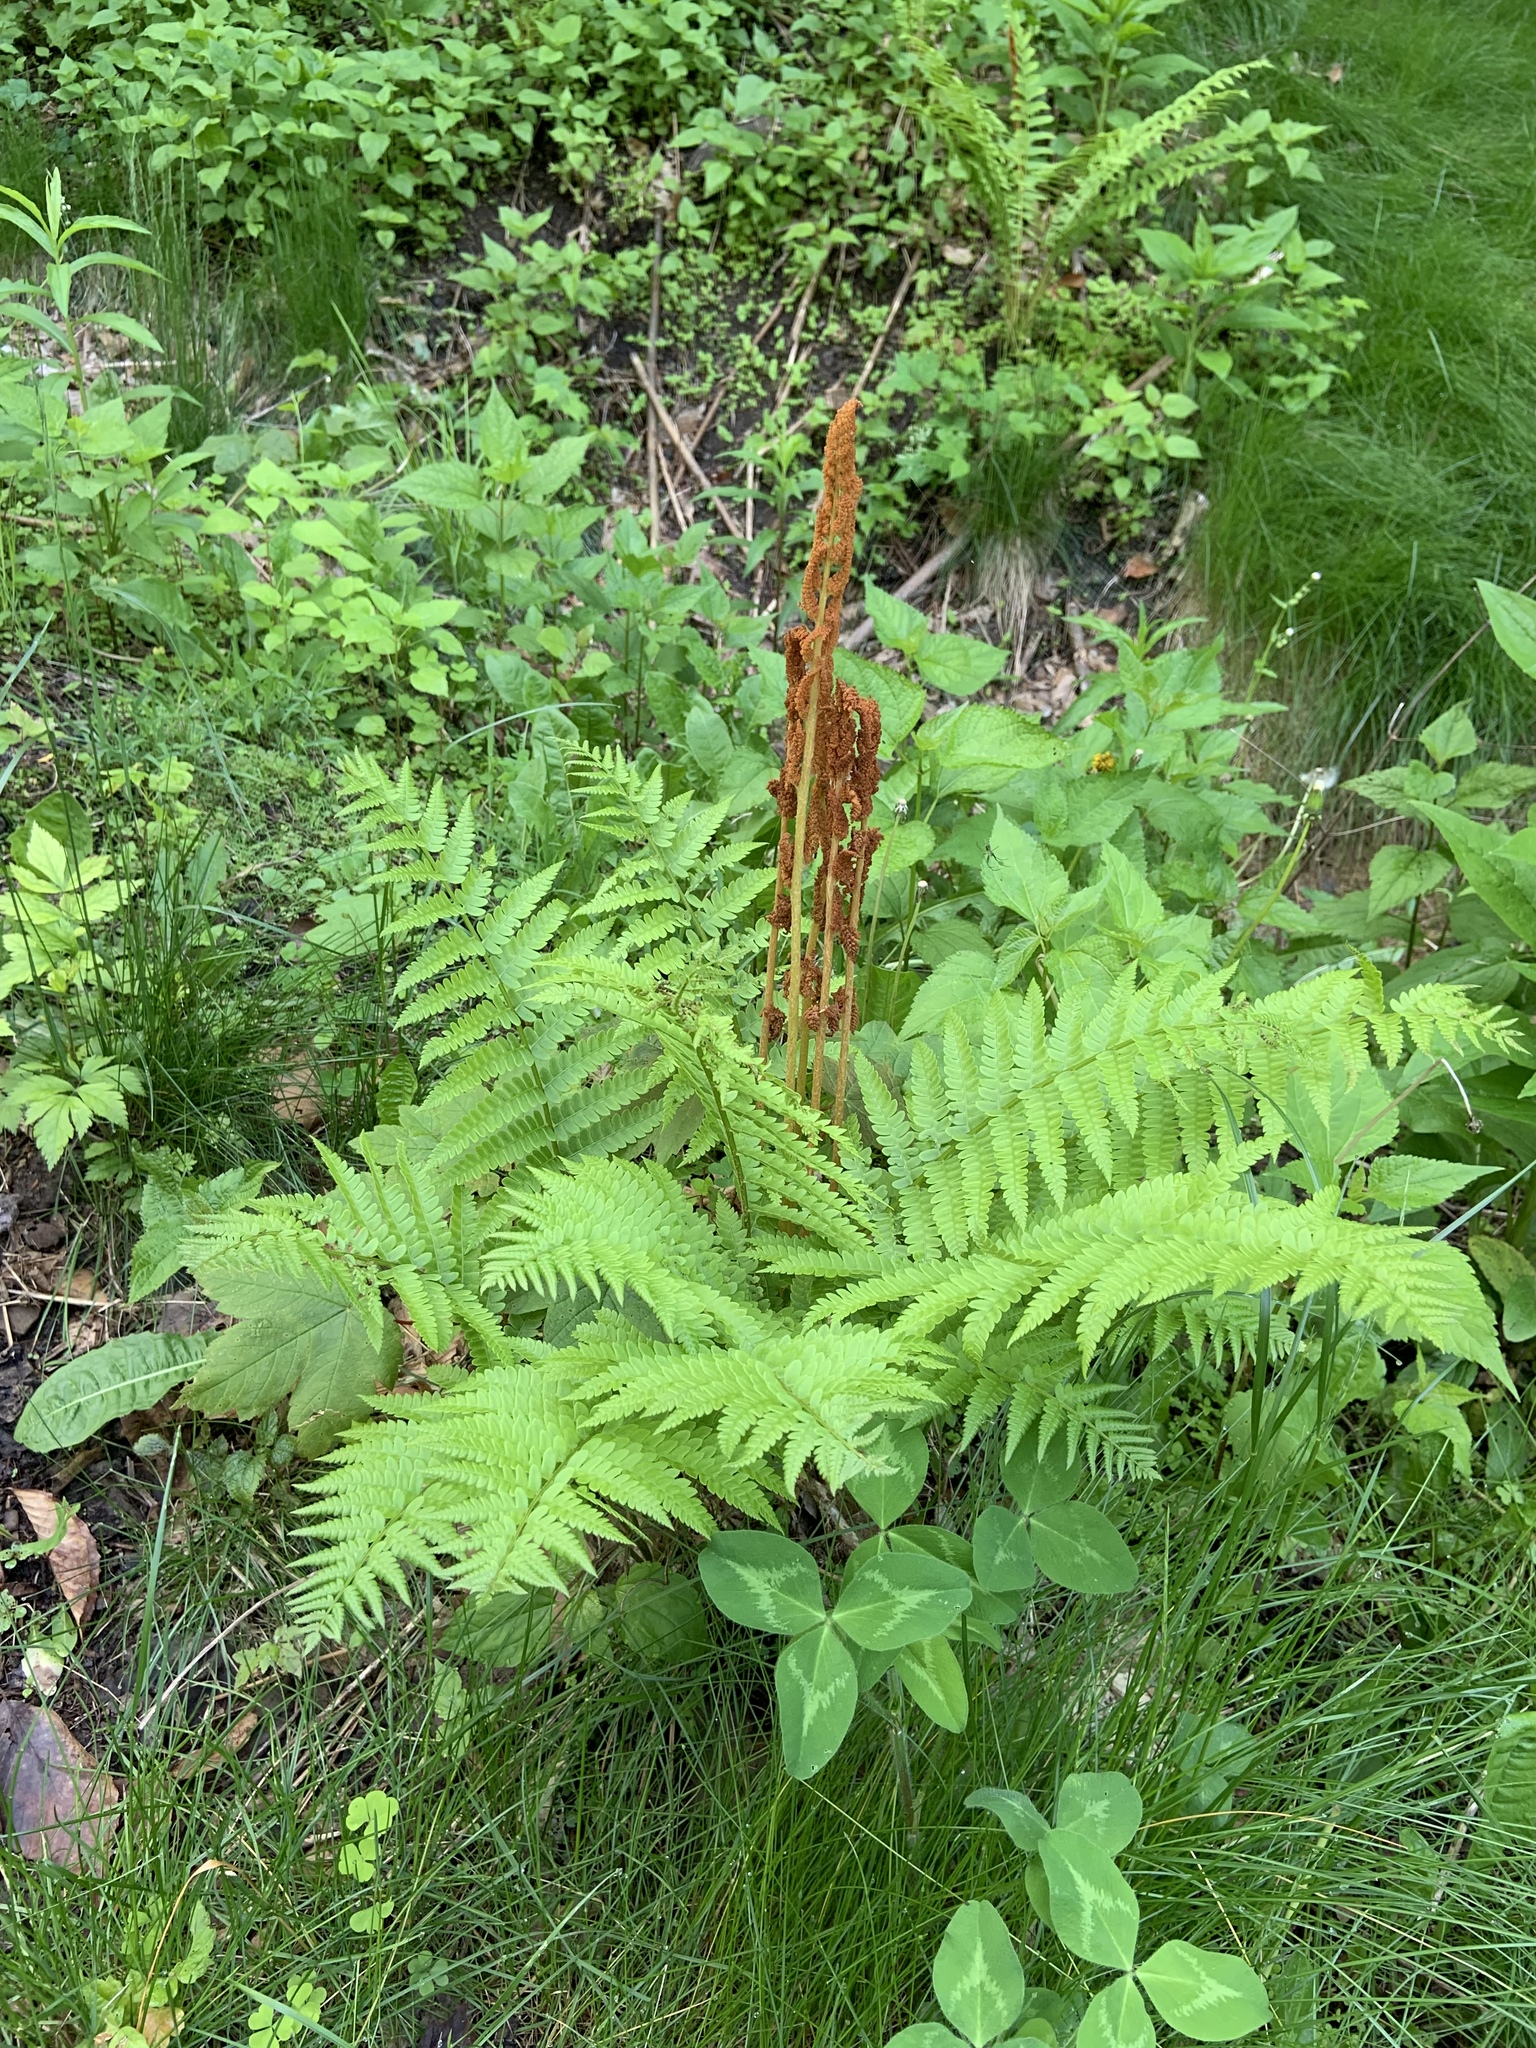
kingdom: Plantae
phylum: Tracheophyta
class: Polypodiopsida
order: Osmundales
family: Osmundaceae
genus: Osmundastrum
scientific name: Osmundastrum cinnamomeum
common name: Cinnamon fern
